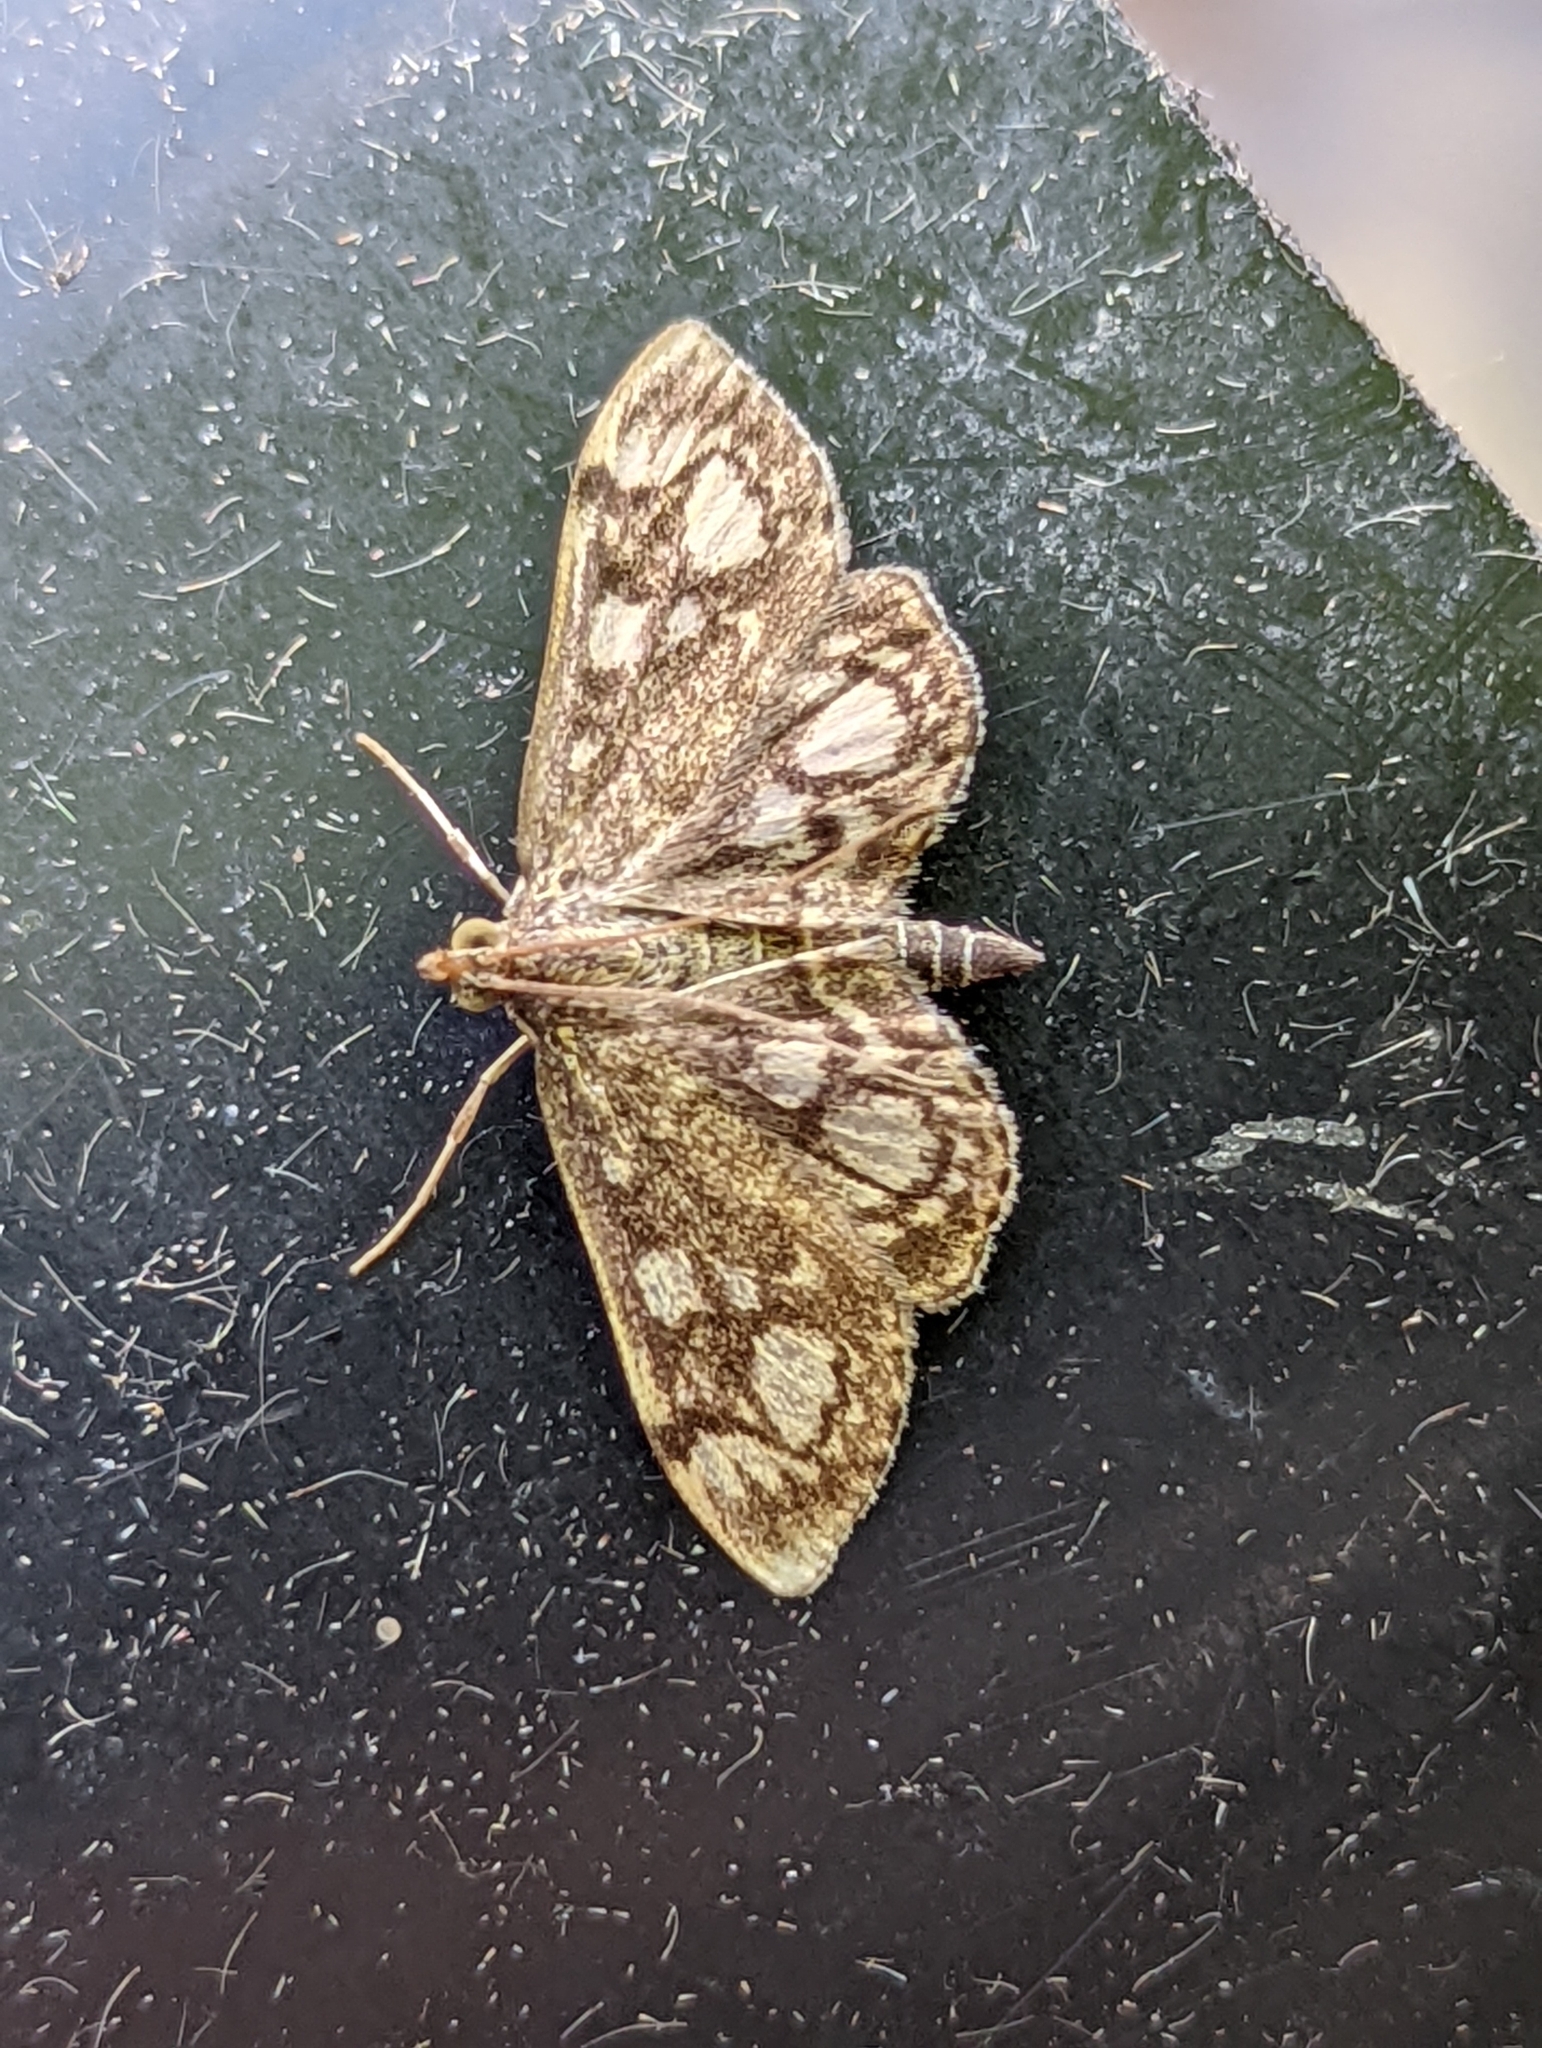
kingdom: Animalia
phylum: Arthropoda
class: Insecta
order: Lepidoptera
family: Crambidae
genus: Anania
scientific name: Anania coronata
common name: Elder pearl
